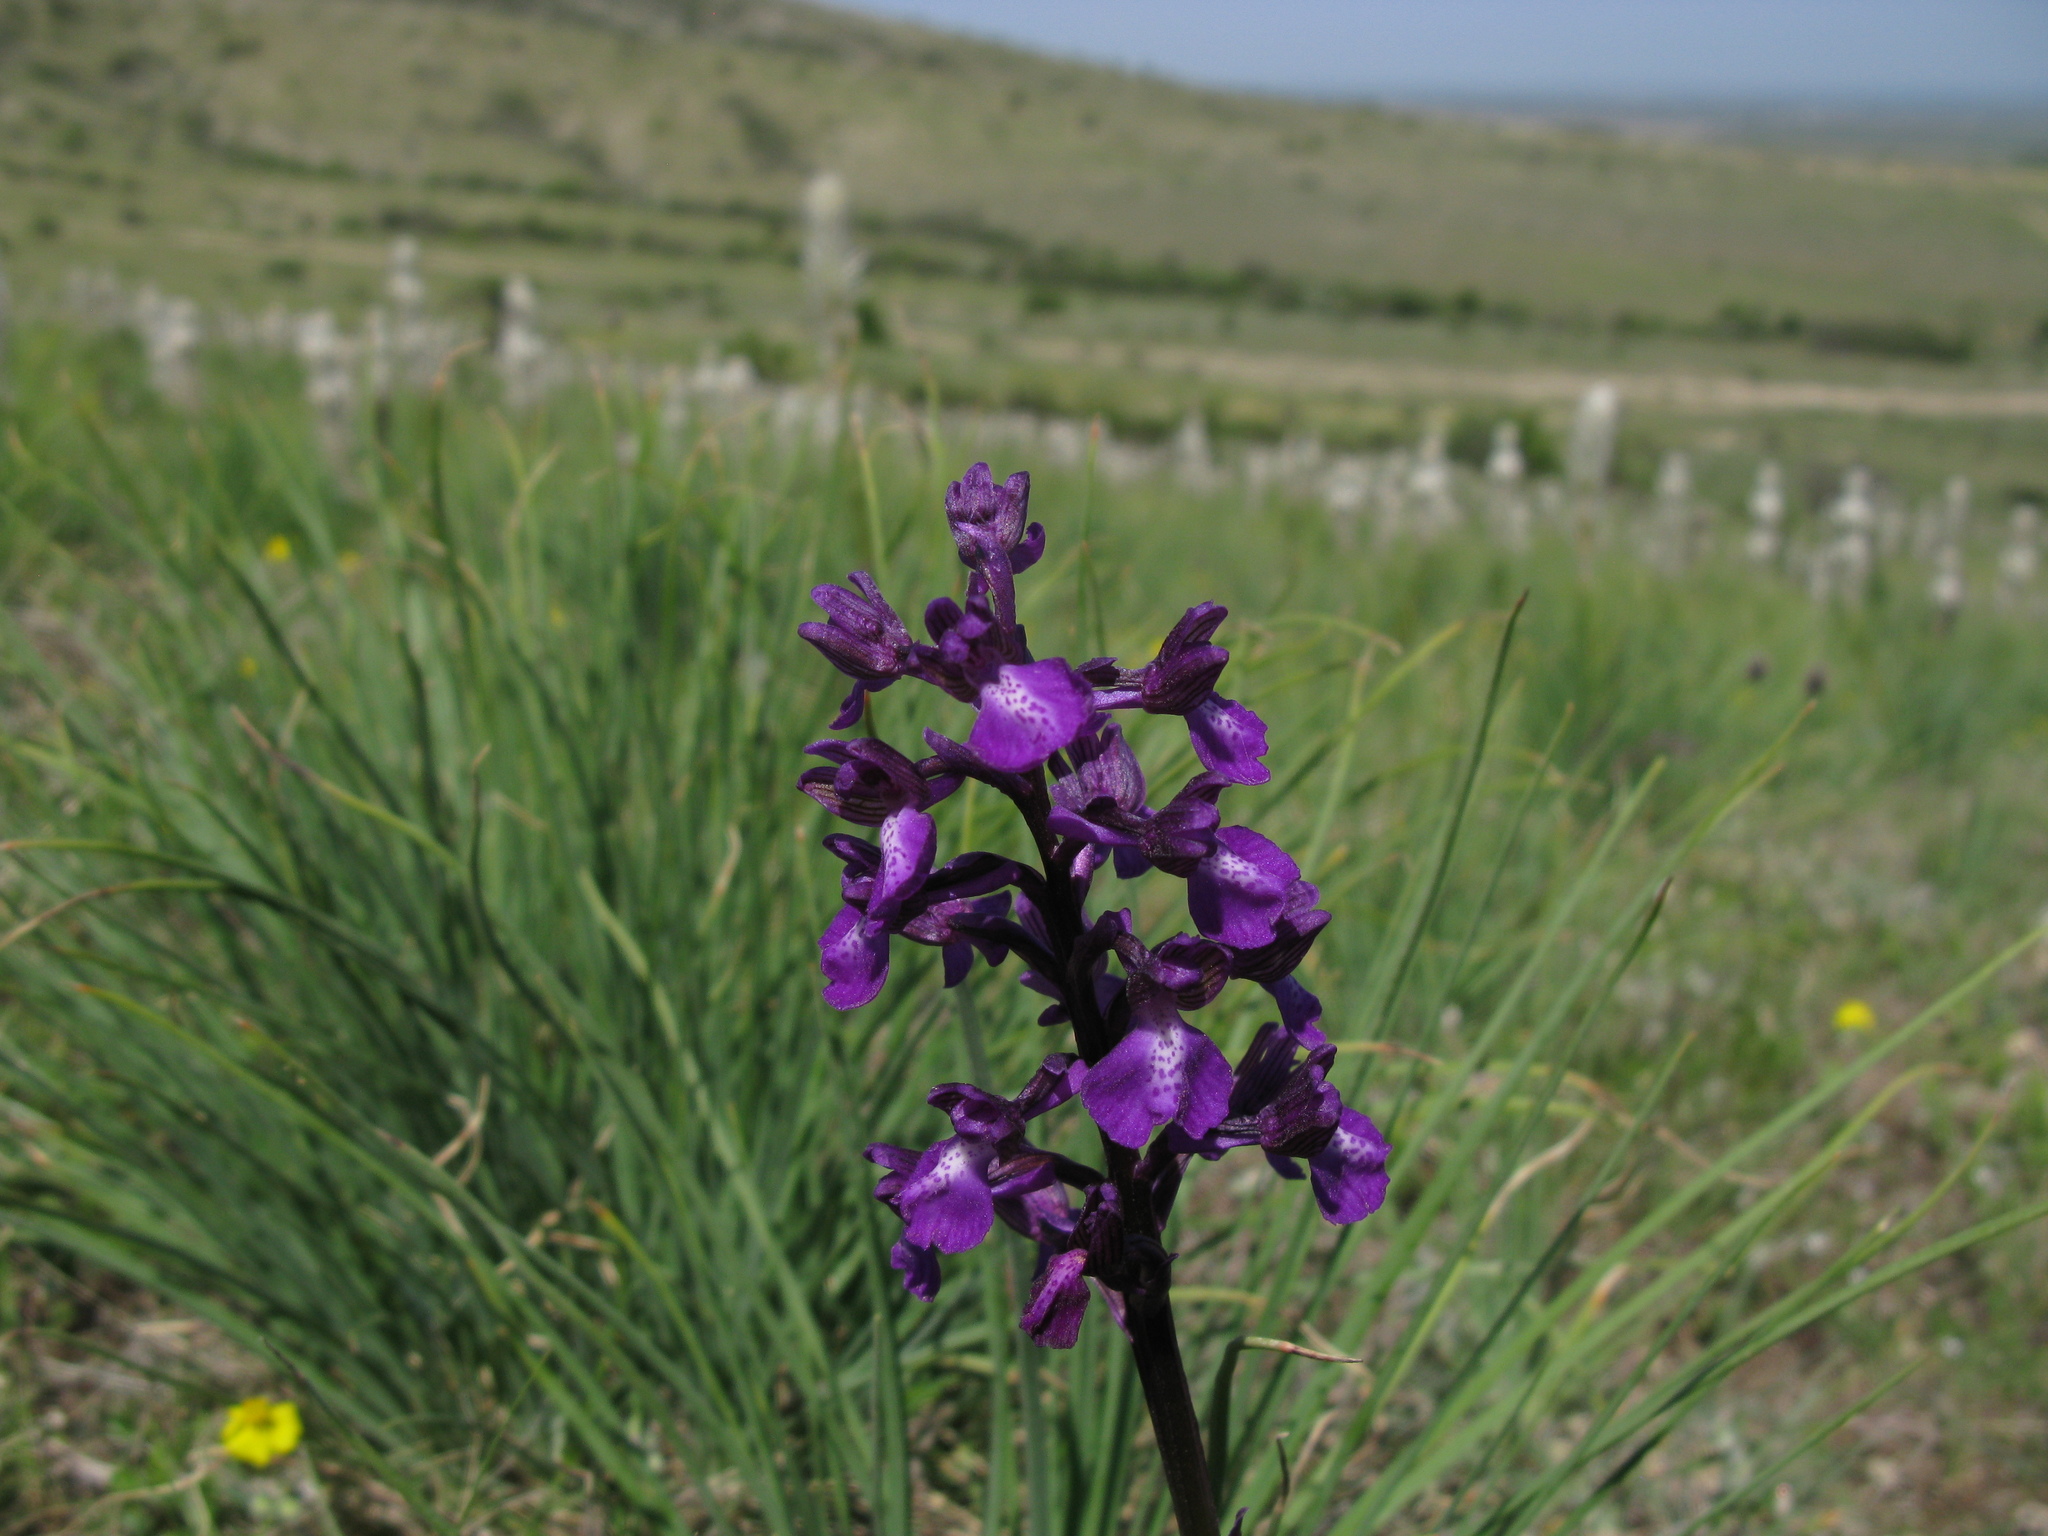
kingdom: Plantae
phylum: Tracheophyta
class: Liliopsida
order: Asparagales
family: Orchidaceae
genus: Anacamptis
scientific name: Anacamptis morio
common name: Green-winged orchid
